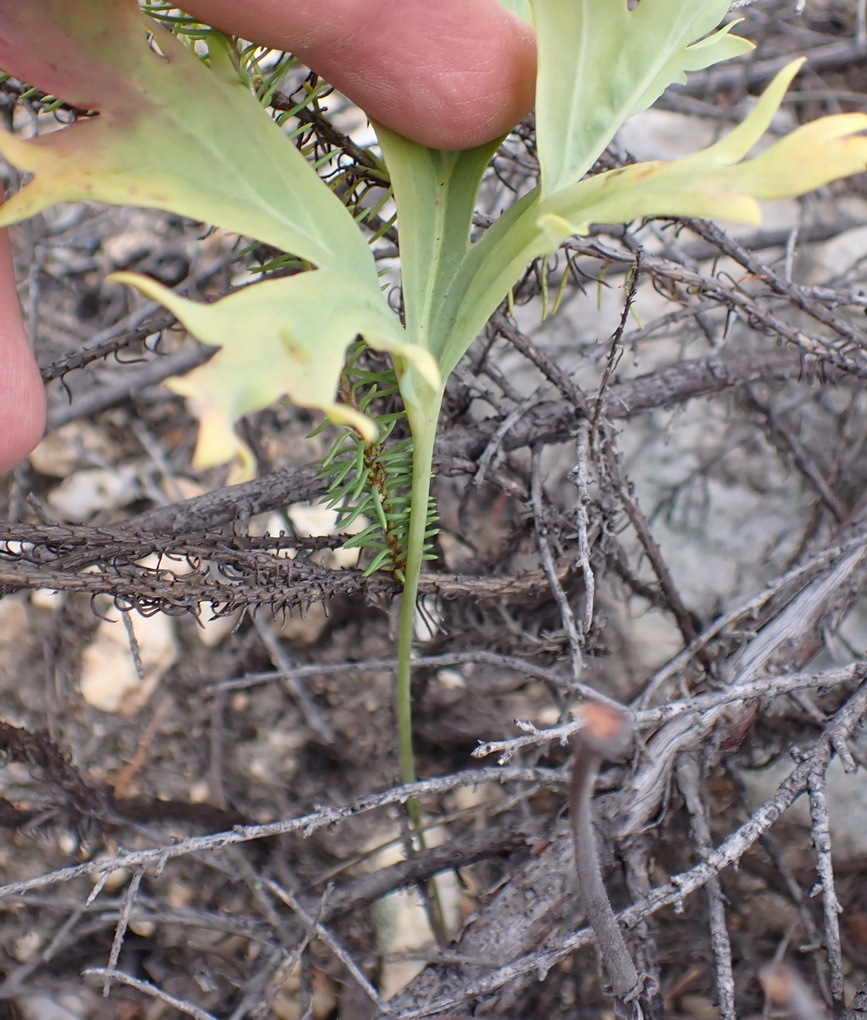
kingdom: Plantae
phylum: Tracheophyta
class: Magnoliopsida
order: Geraniales
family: Geraniaceae
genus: Pelargonium
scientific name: Pelargonium pulverulentum
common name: Powdered-leaf pelargonium
